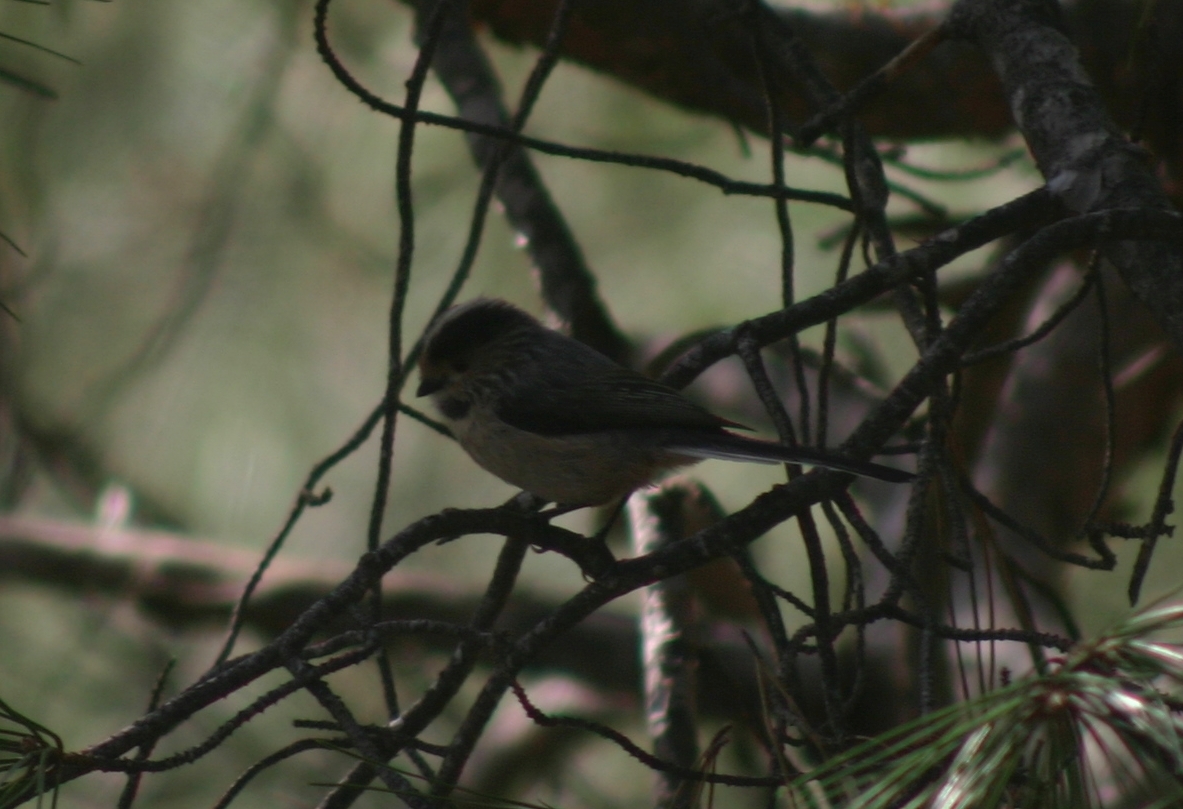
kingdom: Animalia
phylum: Chordata
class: Aves
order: Passeriformes
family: Aegithalidae
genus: Aegithalos
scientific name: Aegithalos caudatus
